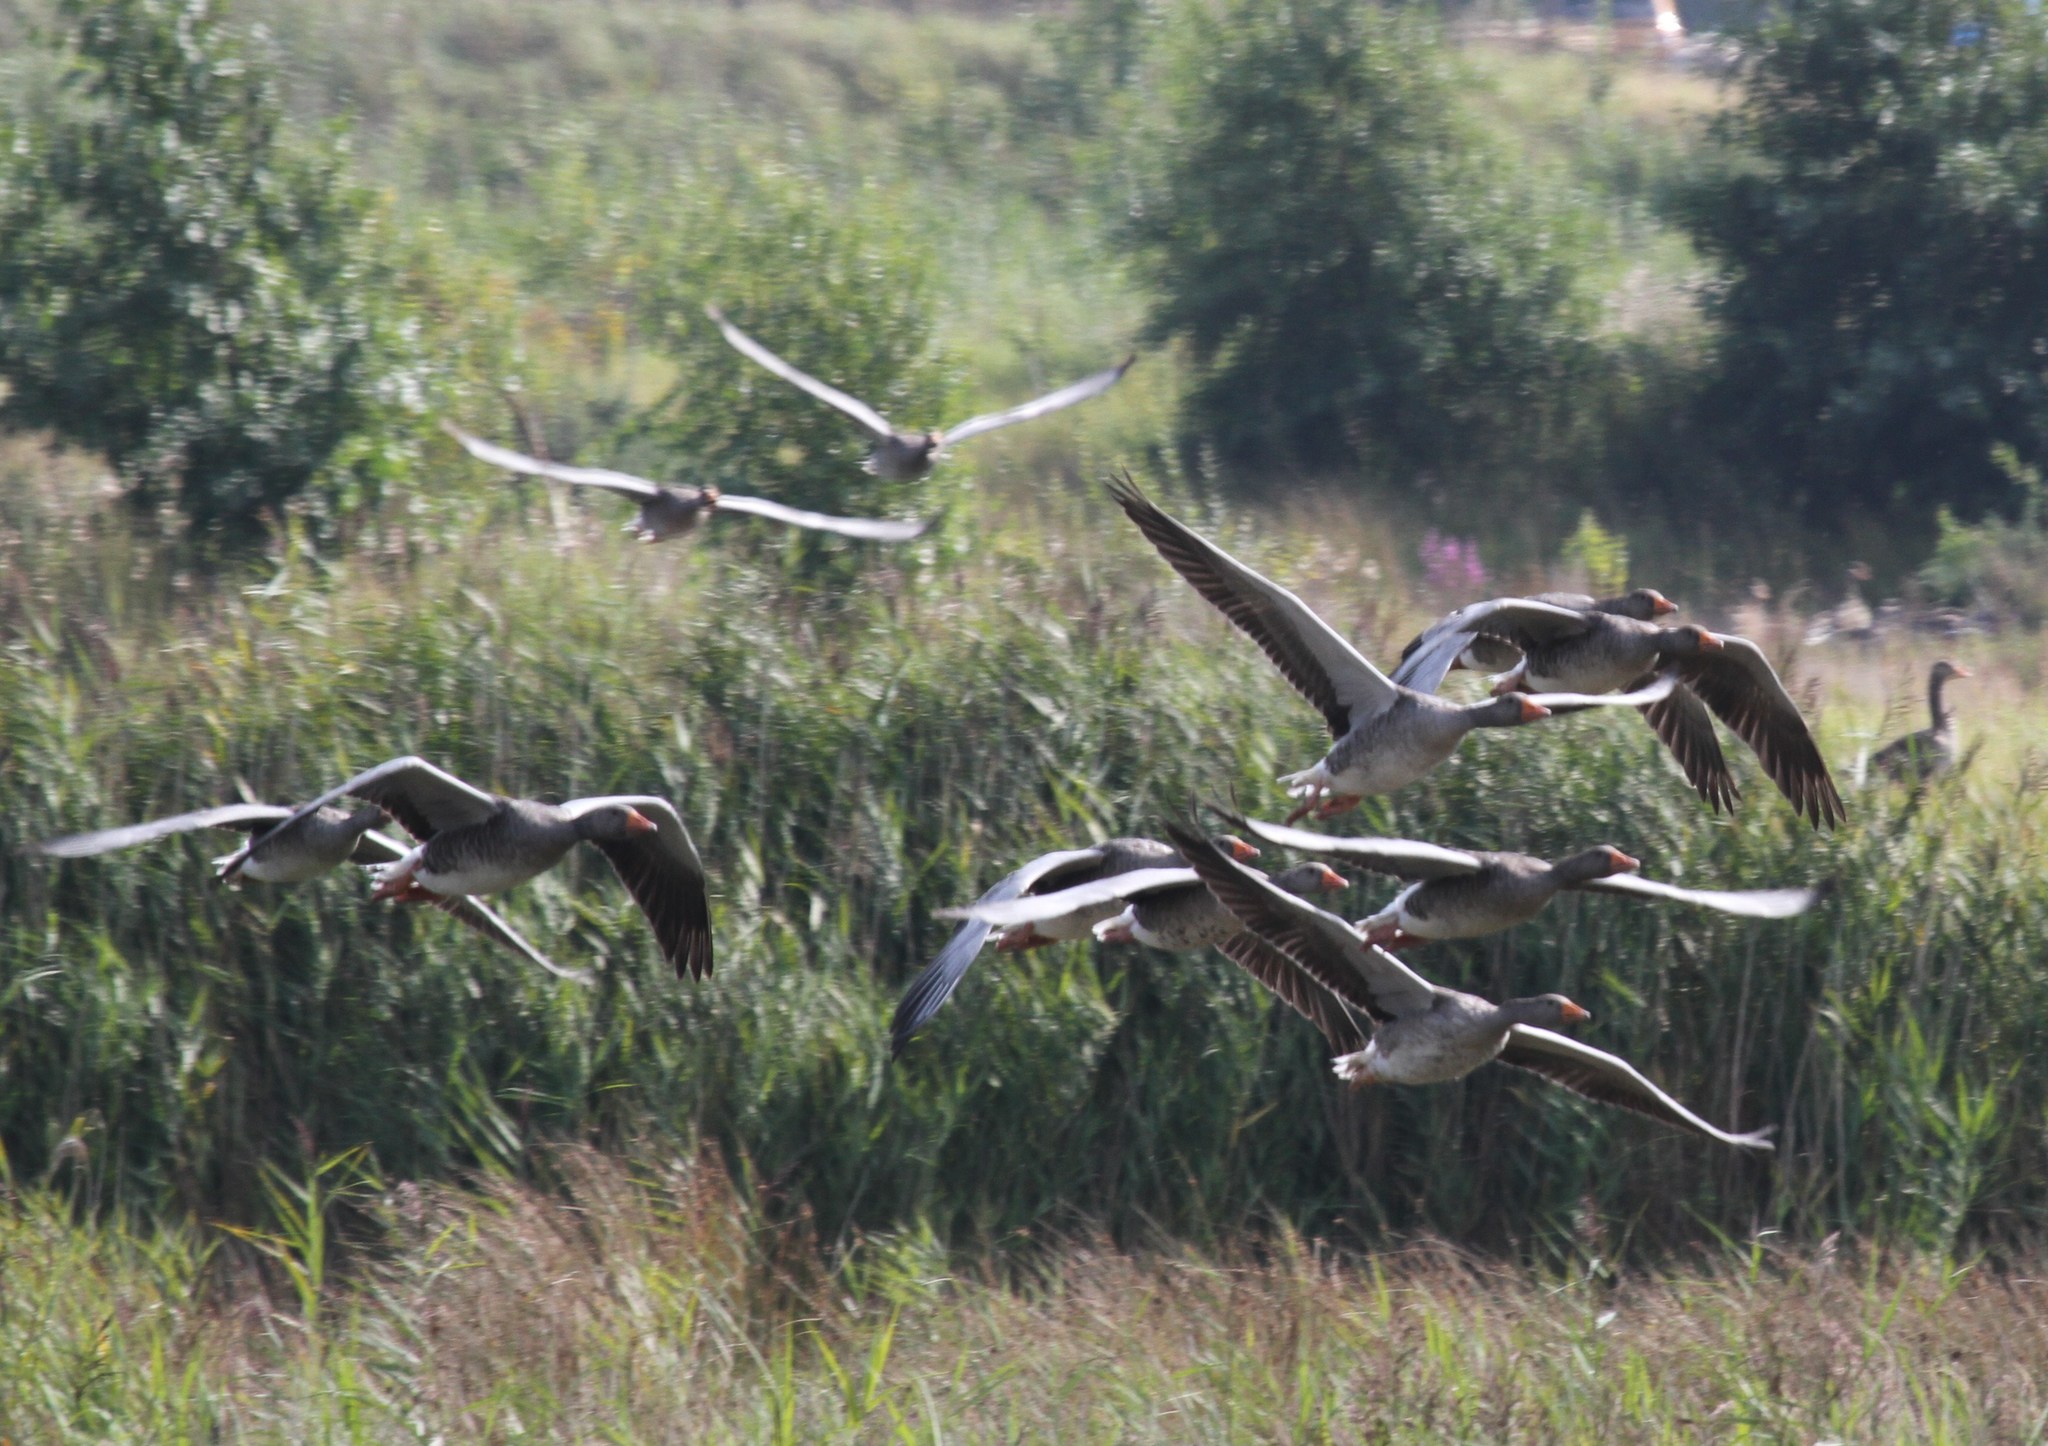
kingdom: Animalia
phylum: Chordata
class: Aves
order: Anseriformes
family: Anatidae
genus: Anser
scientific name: Anser anser
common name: Greylag goose
